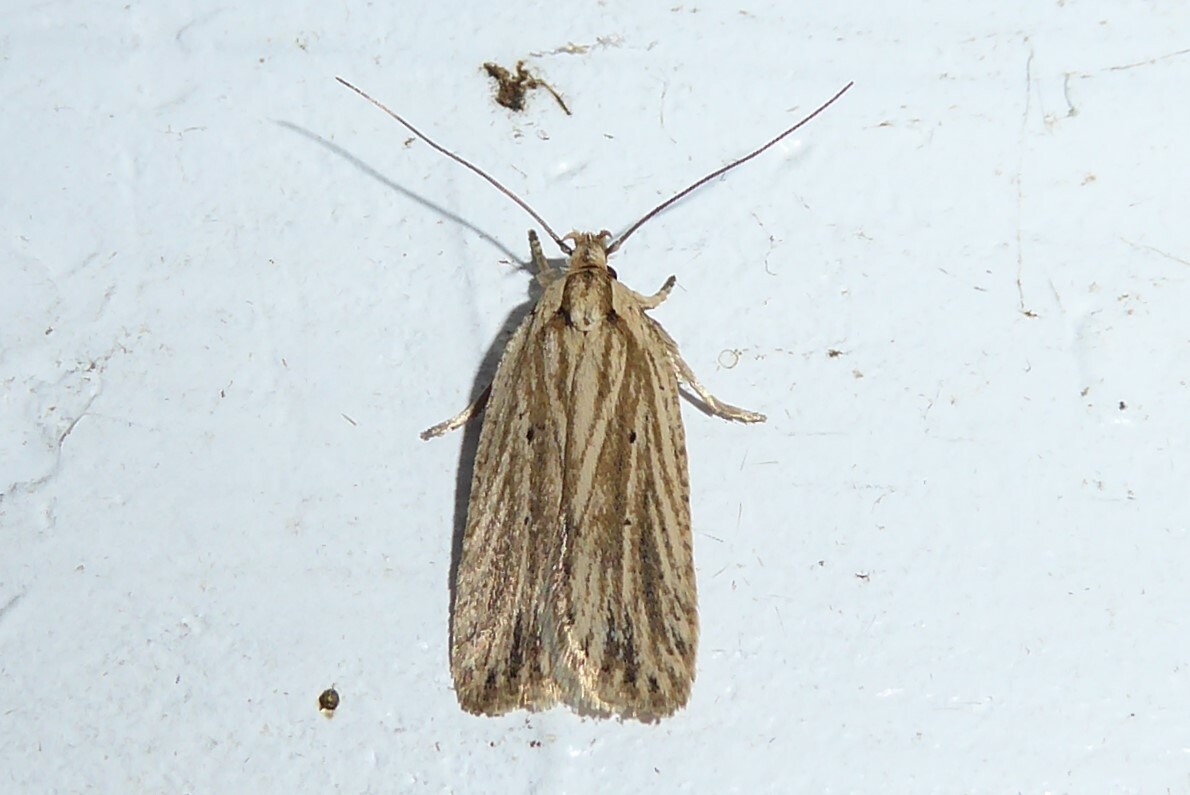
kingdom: Animalia
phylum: Arthropoda
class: Insecta
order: Lepidoptera
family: Depressariidae
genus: Agonopterix
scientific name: Agonopterix
